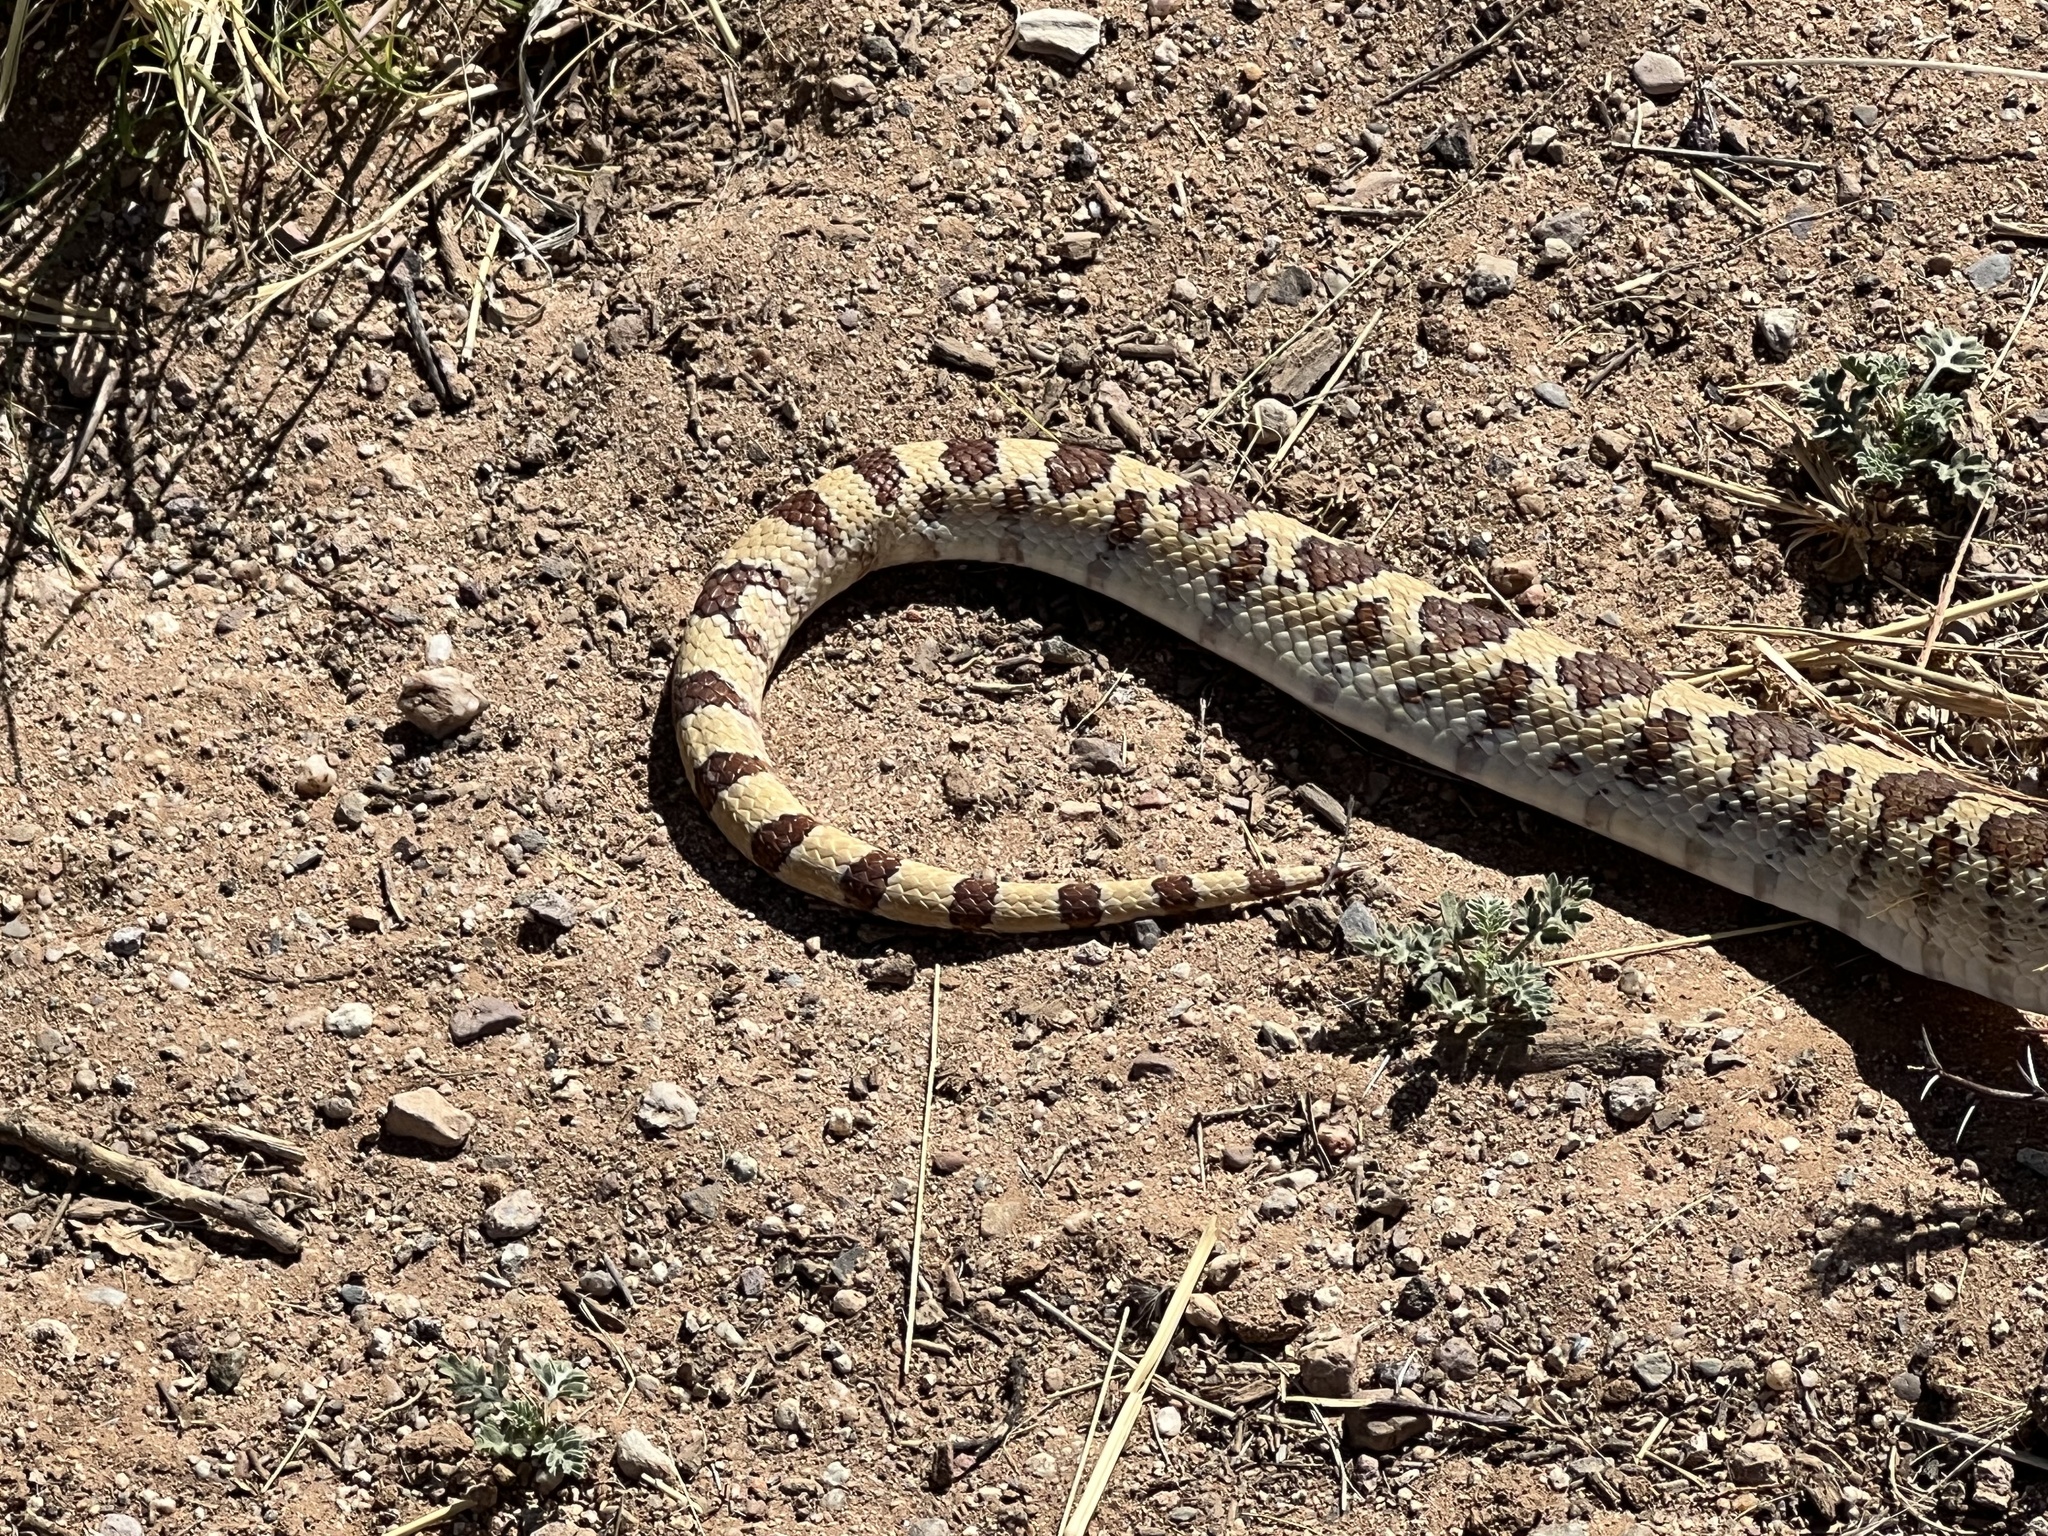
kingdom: Animalia
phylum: Chordata
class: Squamata
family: Colubridae
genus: Pituophis
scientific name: Pituophis catenifer
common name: Gopher snake
